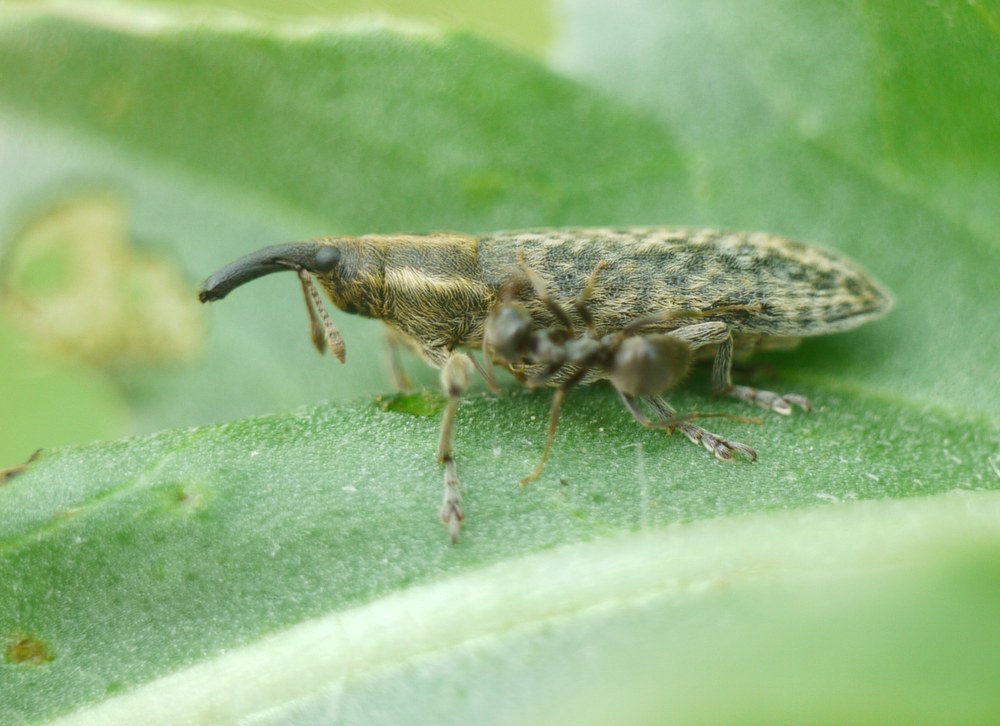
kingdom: Animalia
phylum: Arthropoda
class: Insecta
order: Coleoptera
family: Curculionidae
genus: Lixus
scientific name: Lixus filiformis
